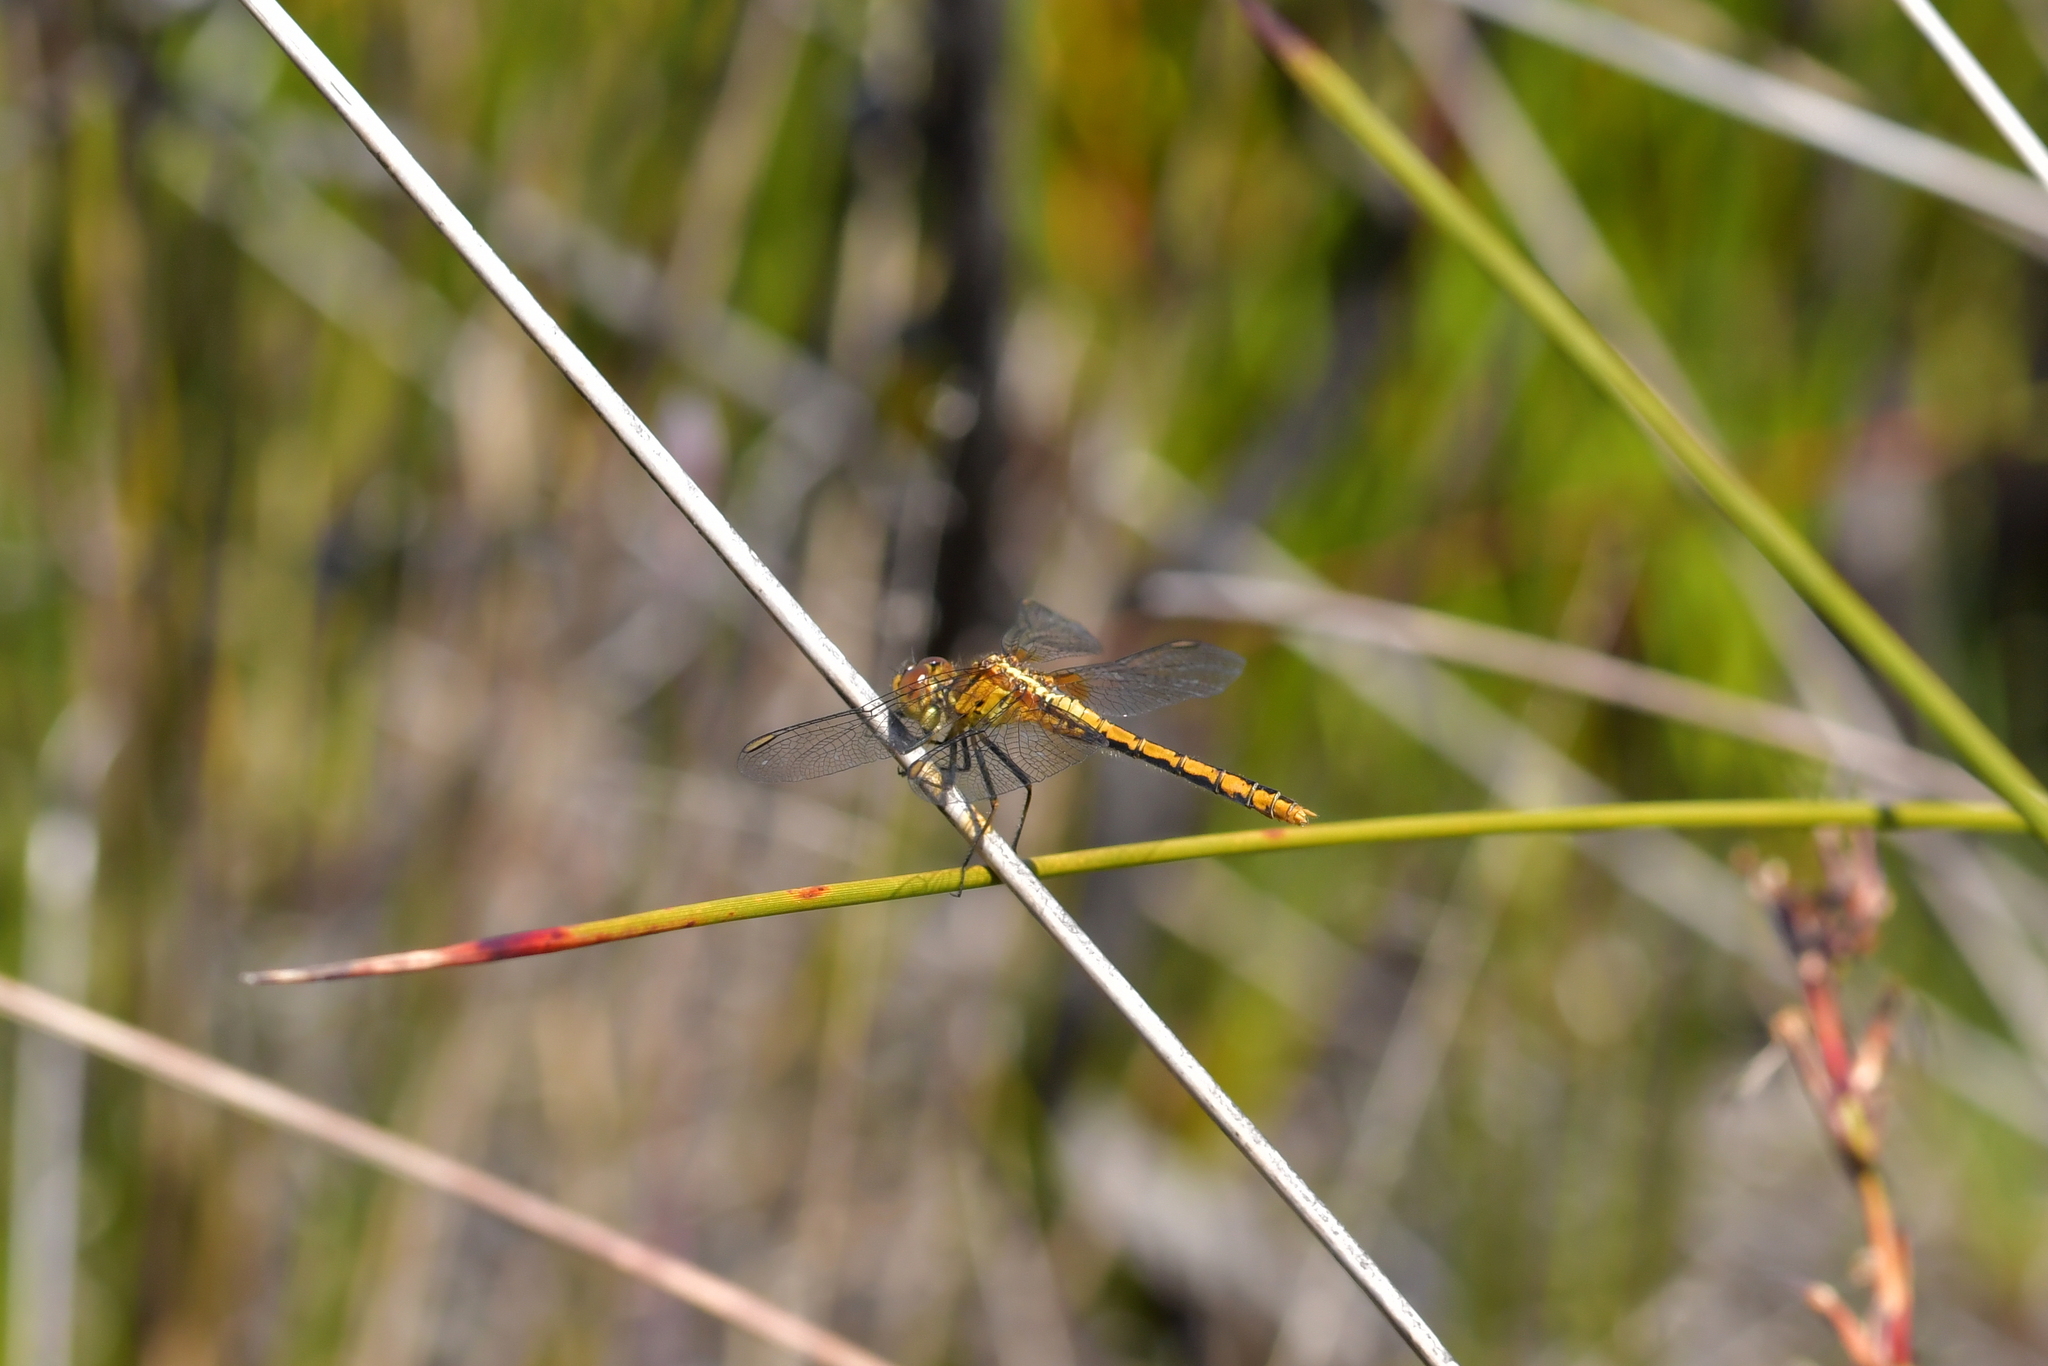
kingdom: Animalia
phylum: Arthropoda
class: Insecta
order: Odonata
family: Libellulidae
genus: Diplacodes
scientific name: Diplacodes bipunctata
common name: Red percher dragonfly
